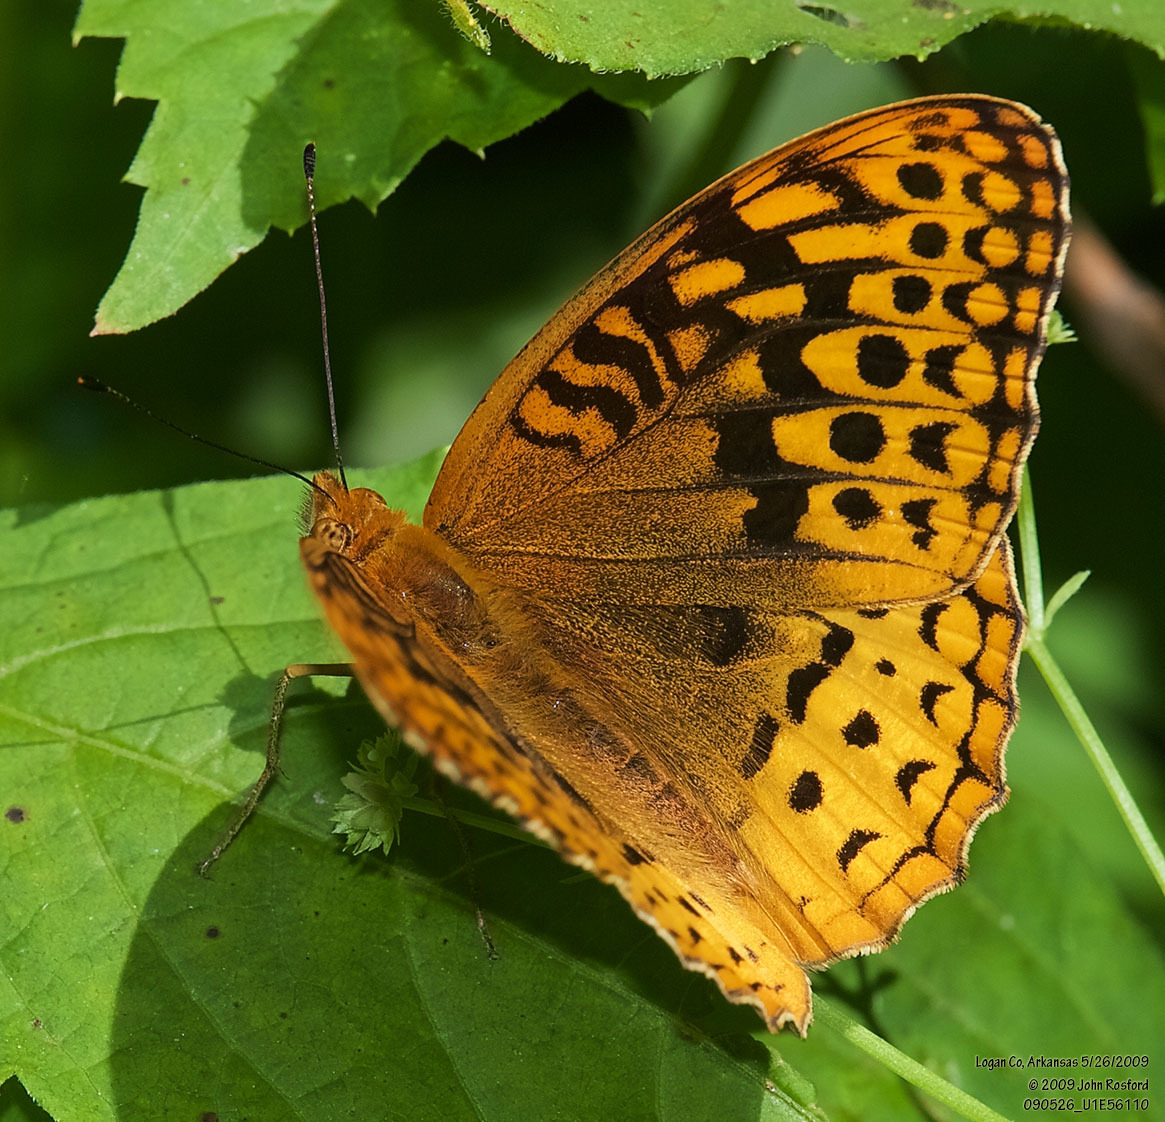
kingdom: Animalia
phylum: Arthropoda
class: Insecta
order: Lepidoptera
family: Nymphalidae
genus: Speyeria
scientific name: Speyeria cybele
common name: Great spangled fritillary
